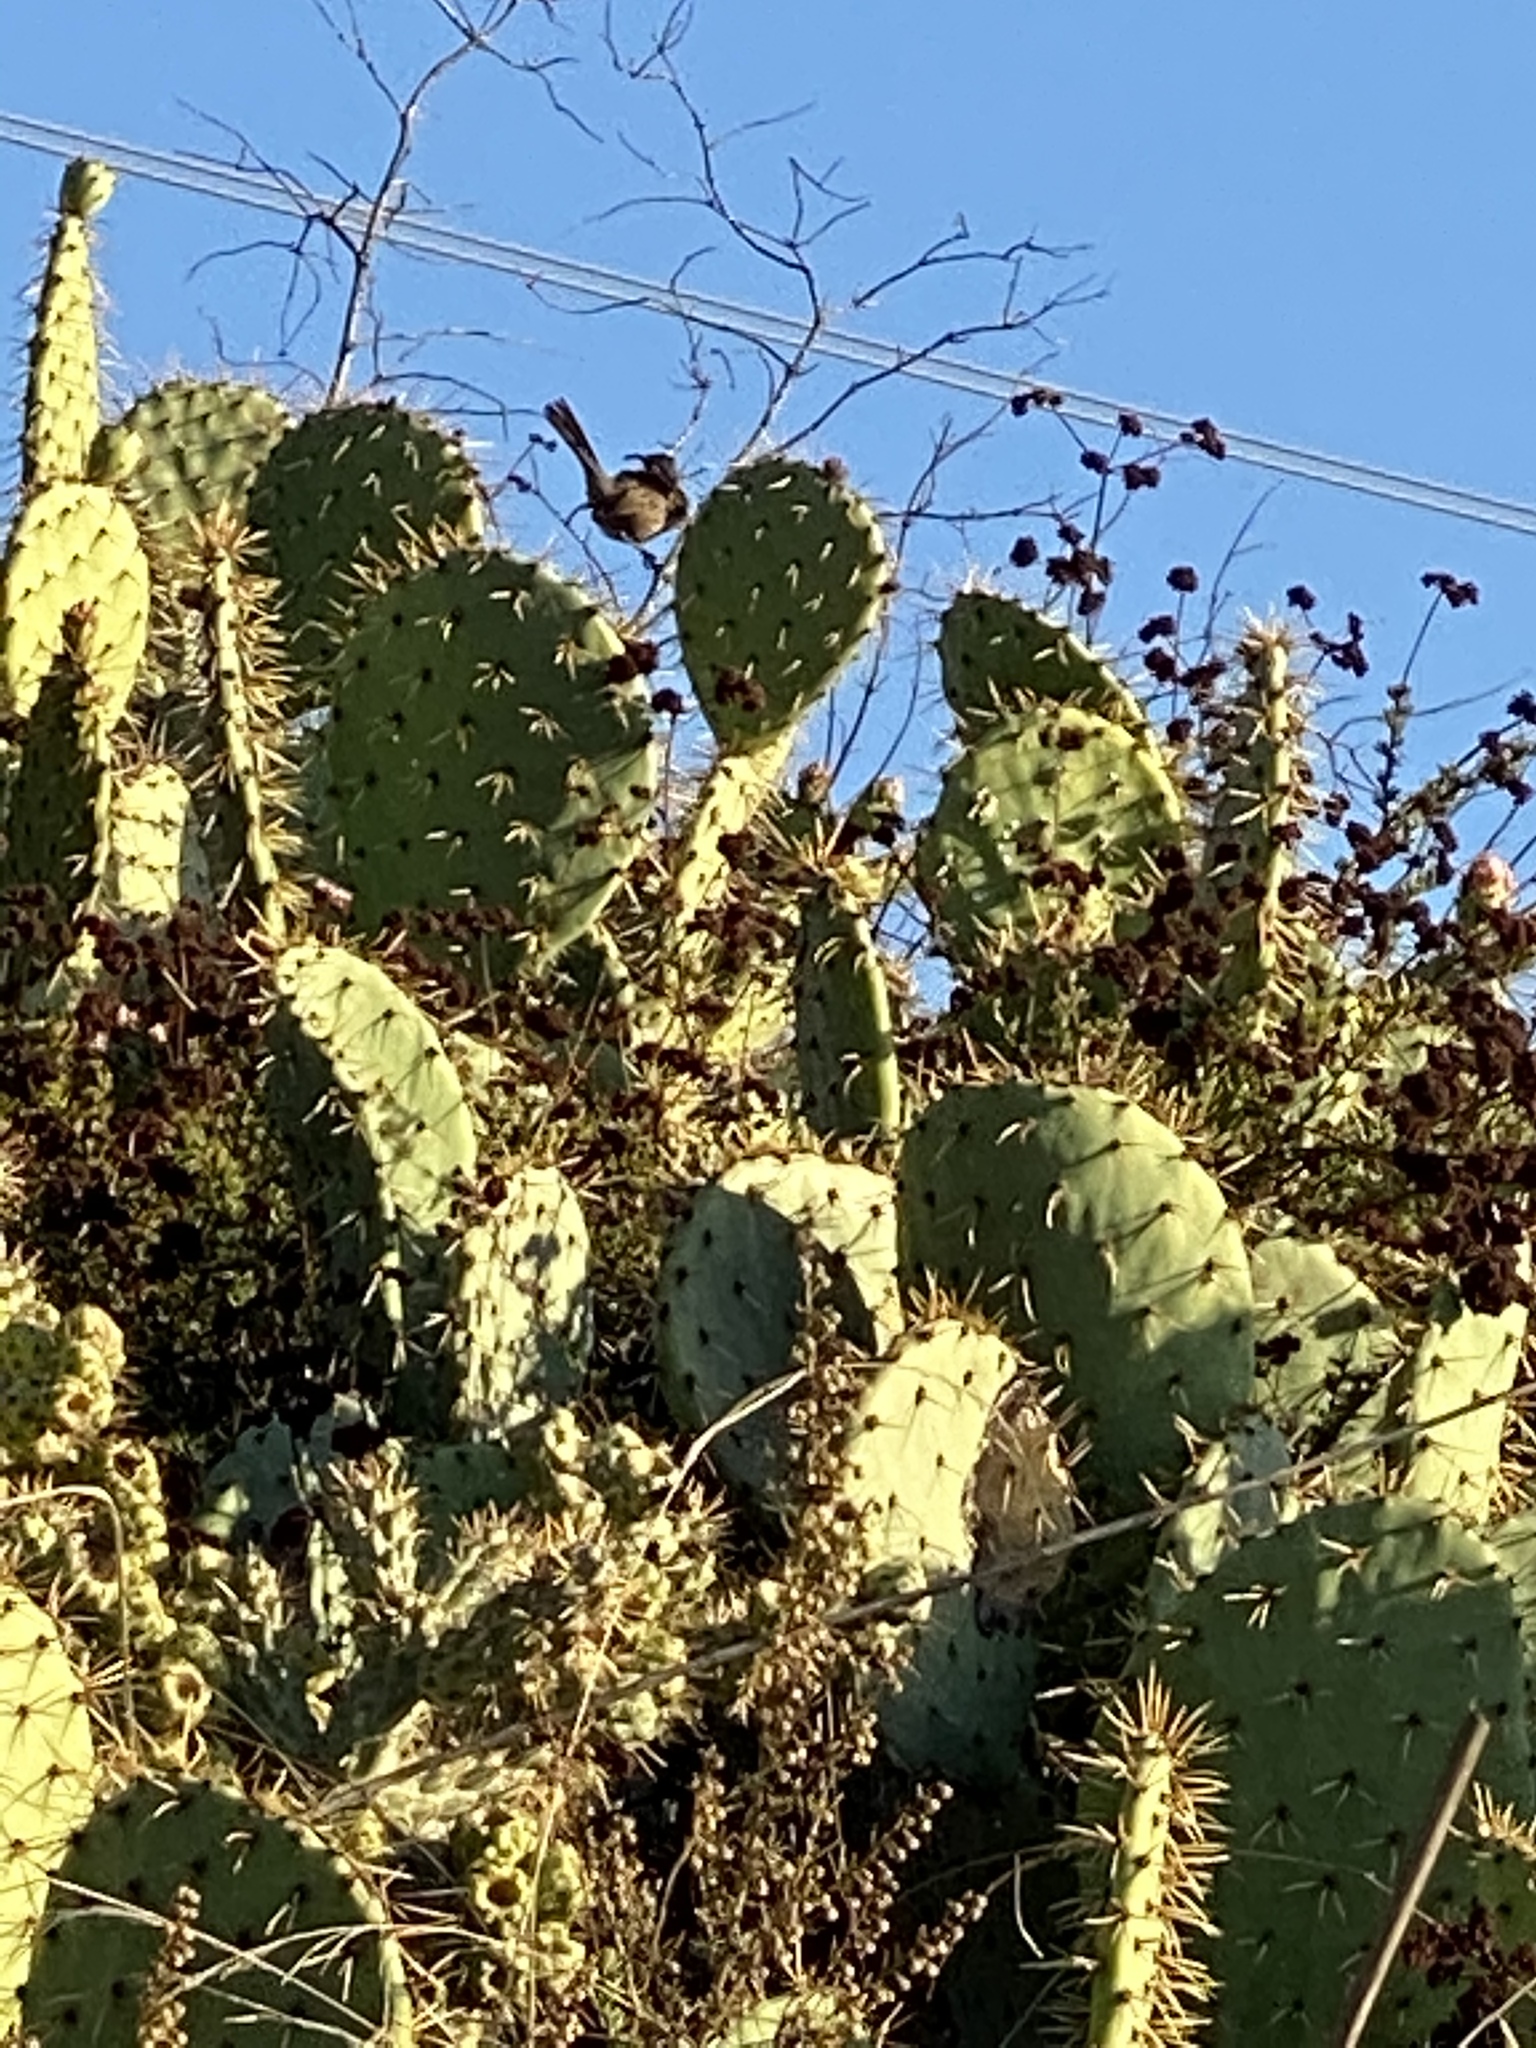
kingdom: Animalia
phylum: Chordata
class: Aves
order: Passeriformes
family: Troglodytidae
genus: Campylorhynchus
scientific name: Campylorhynchus brunneicapillus
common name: Cactus wren
